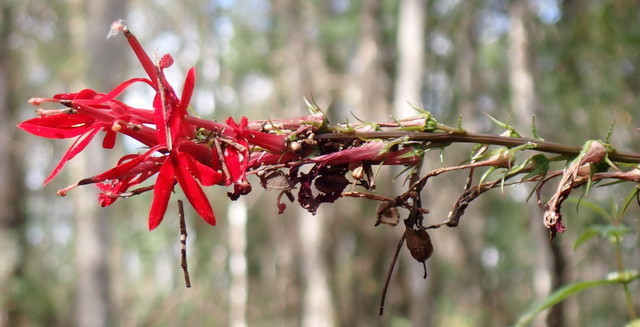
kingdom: Plantae
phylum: Tracheophyta
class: Magnoliopsida
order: Asterales
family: Campanulaceae
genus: Lobelia
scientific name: Lobelia cardinalis
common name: Cardinal flower
